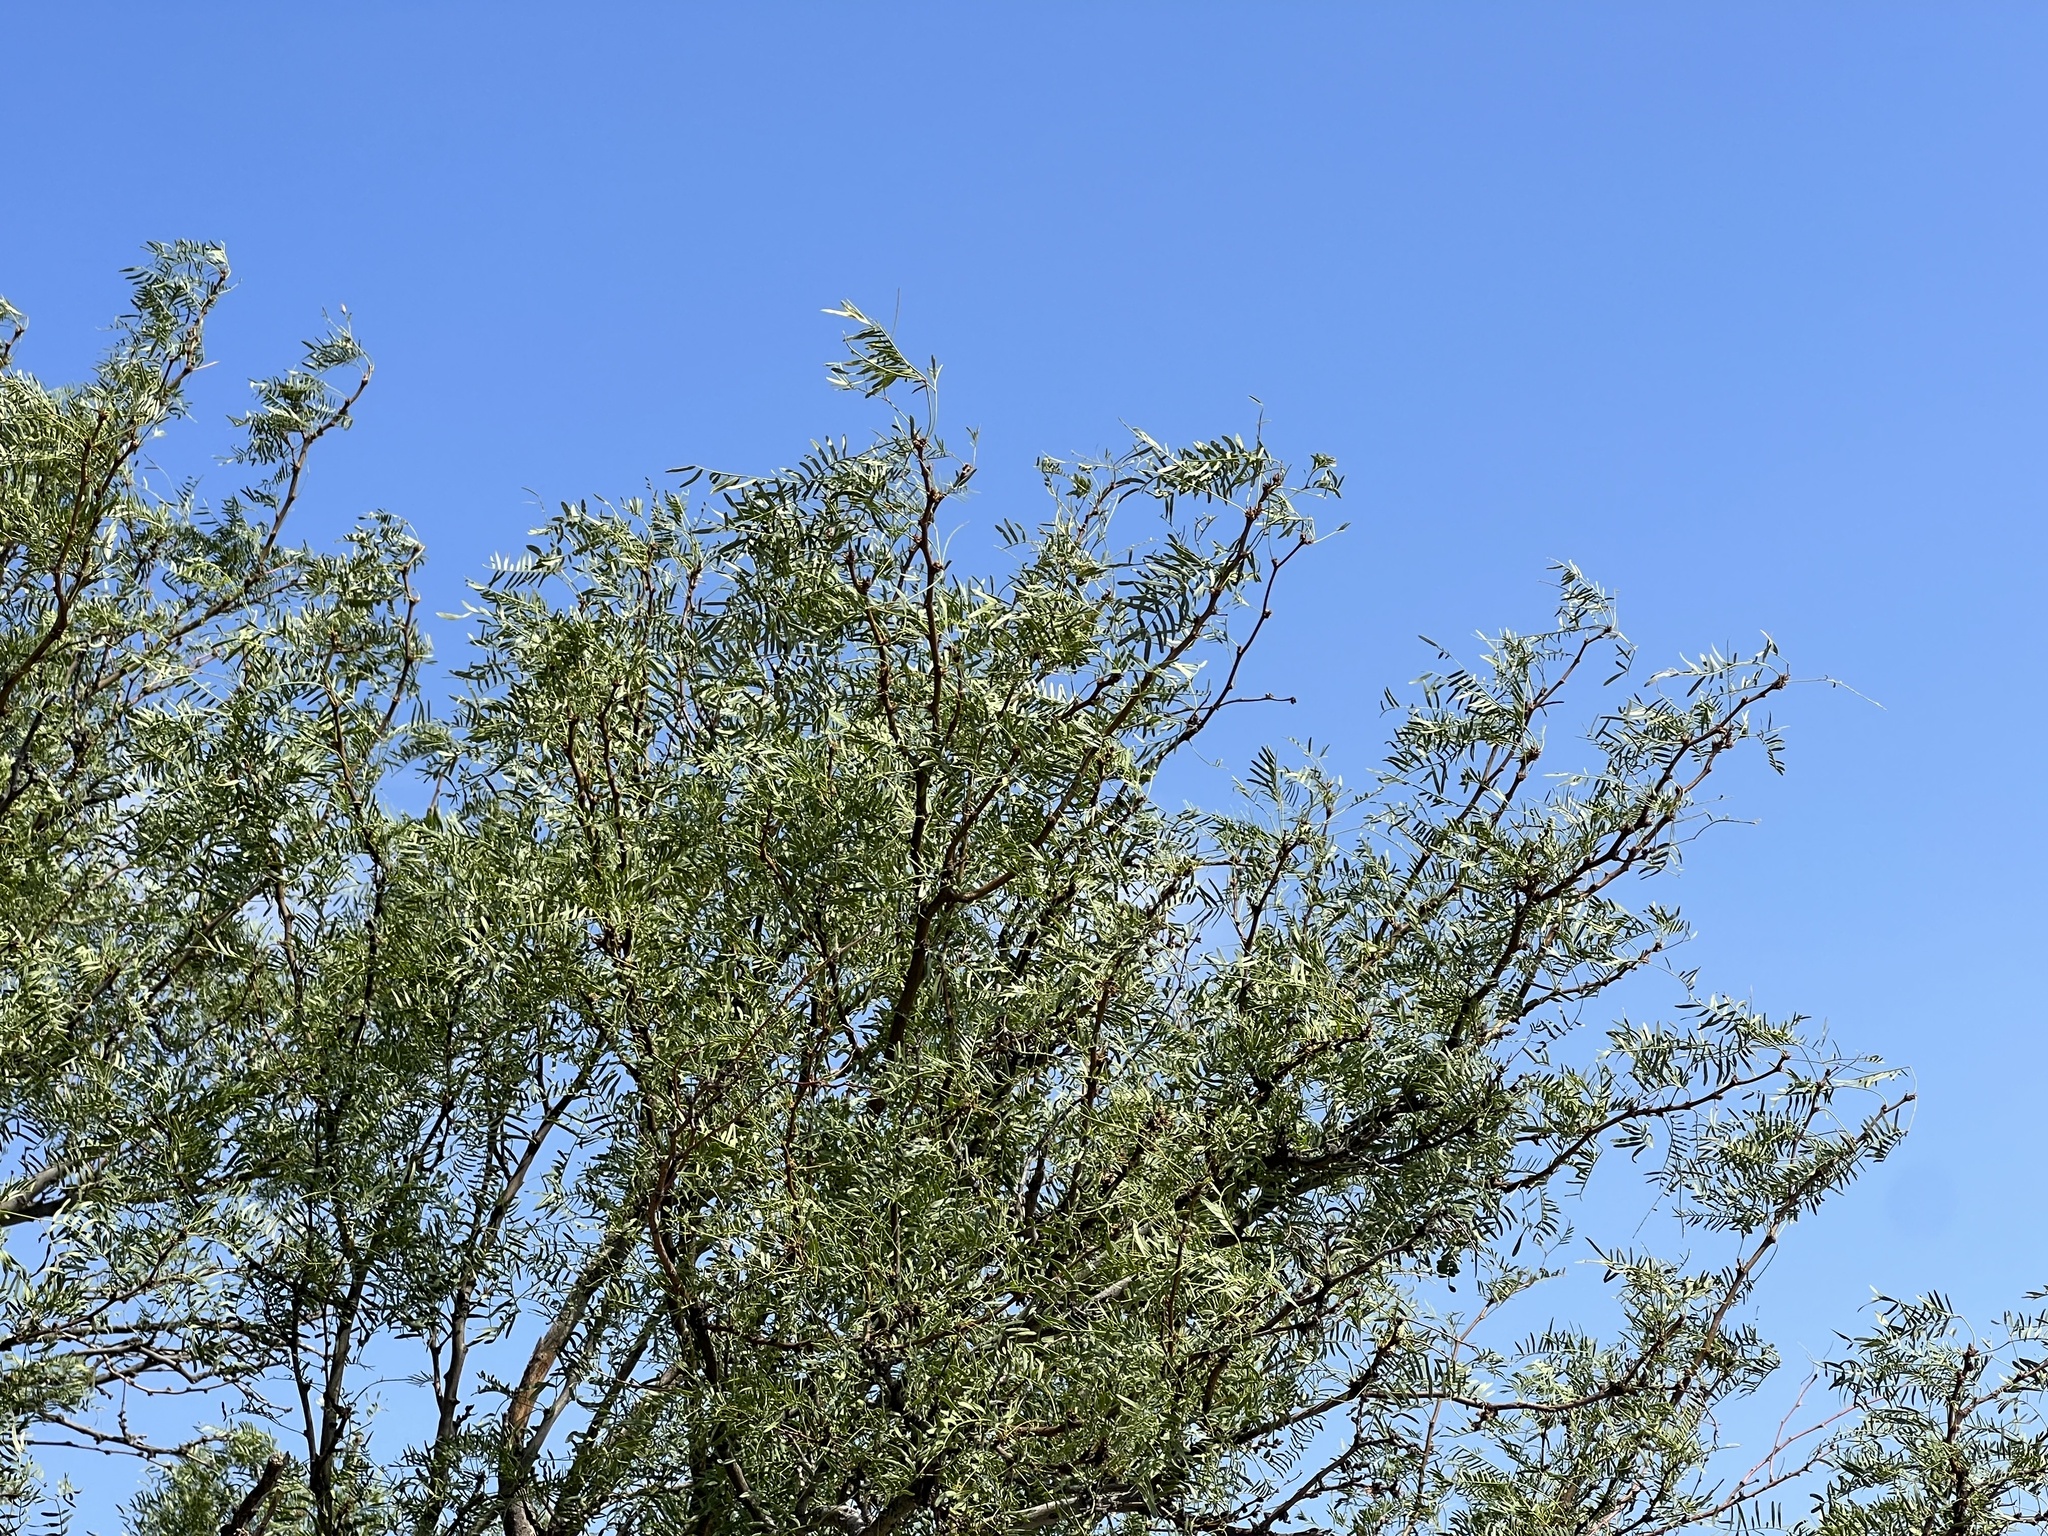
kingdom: Plantae
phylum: Tracheophyta
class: Magnoliopsida
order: Fabales
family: Fabaceae
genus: Prosopis
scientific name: Prosopis glandulosa
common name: Honey mesquite
